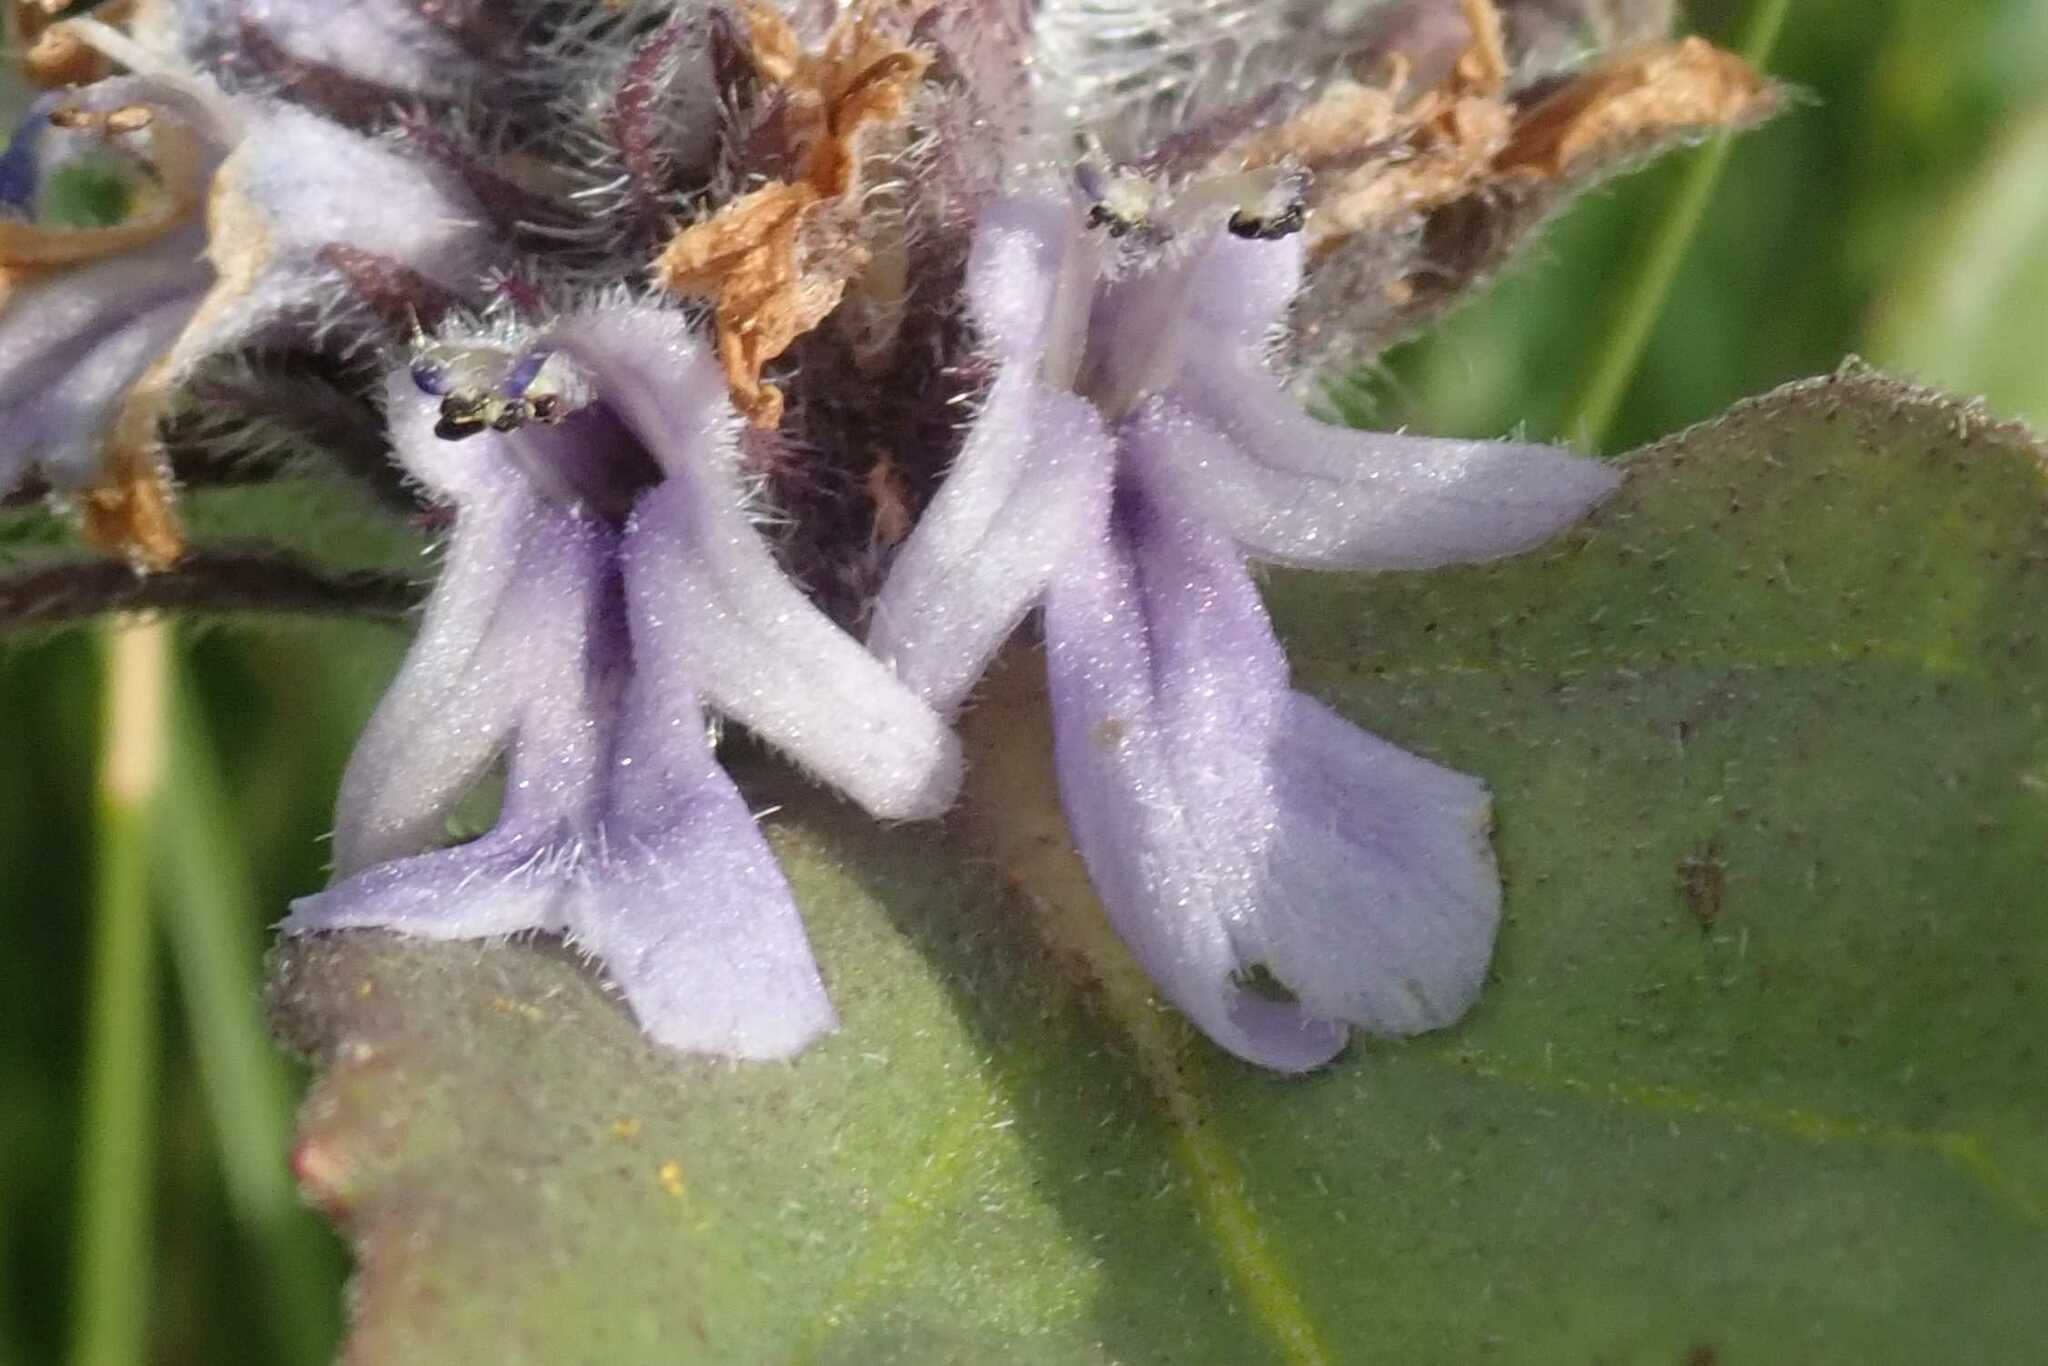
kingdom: Plantae
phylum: Tracheophyta
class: Magnoliopsida
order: Lamiales
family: Lamiaceae
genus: Ajuga
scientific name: Ajuga ophrydis
